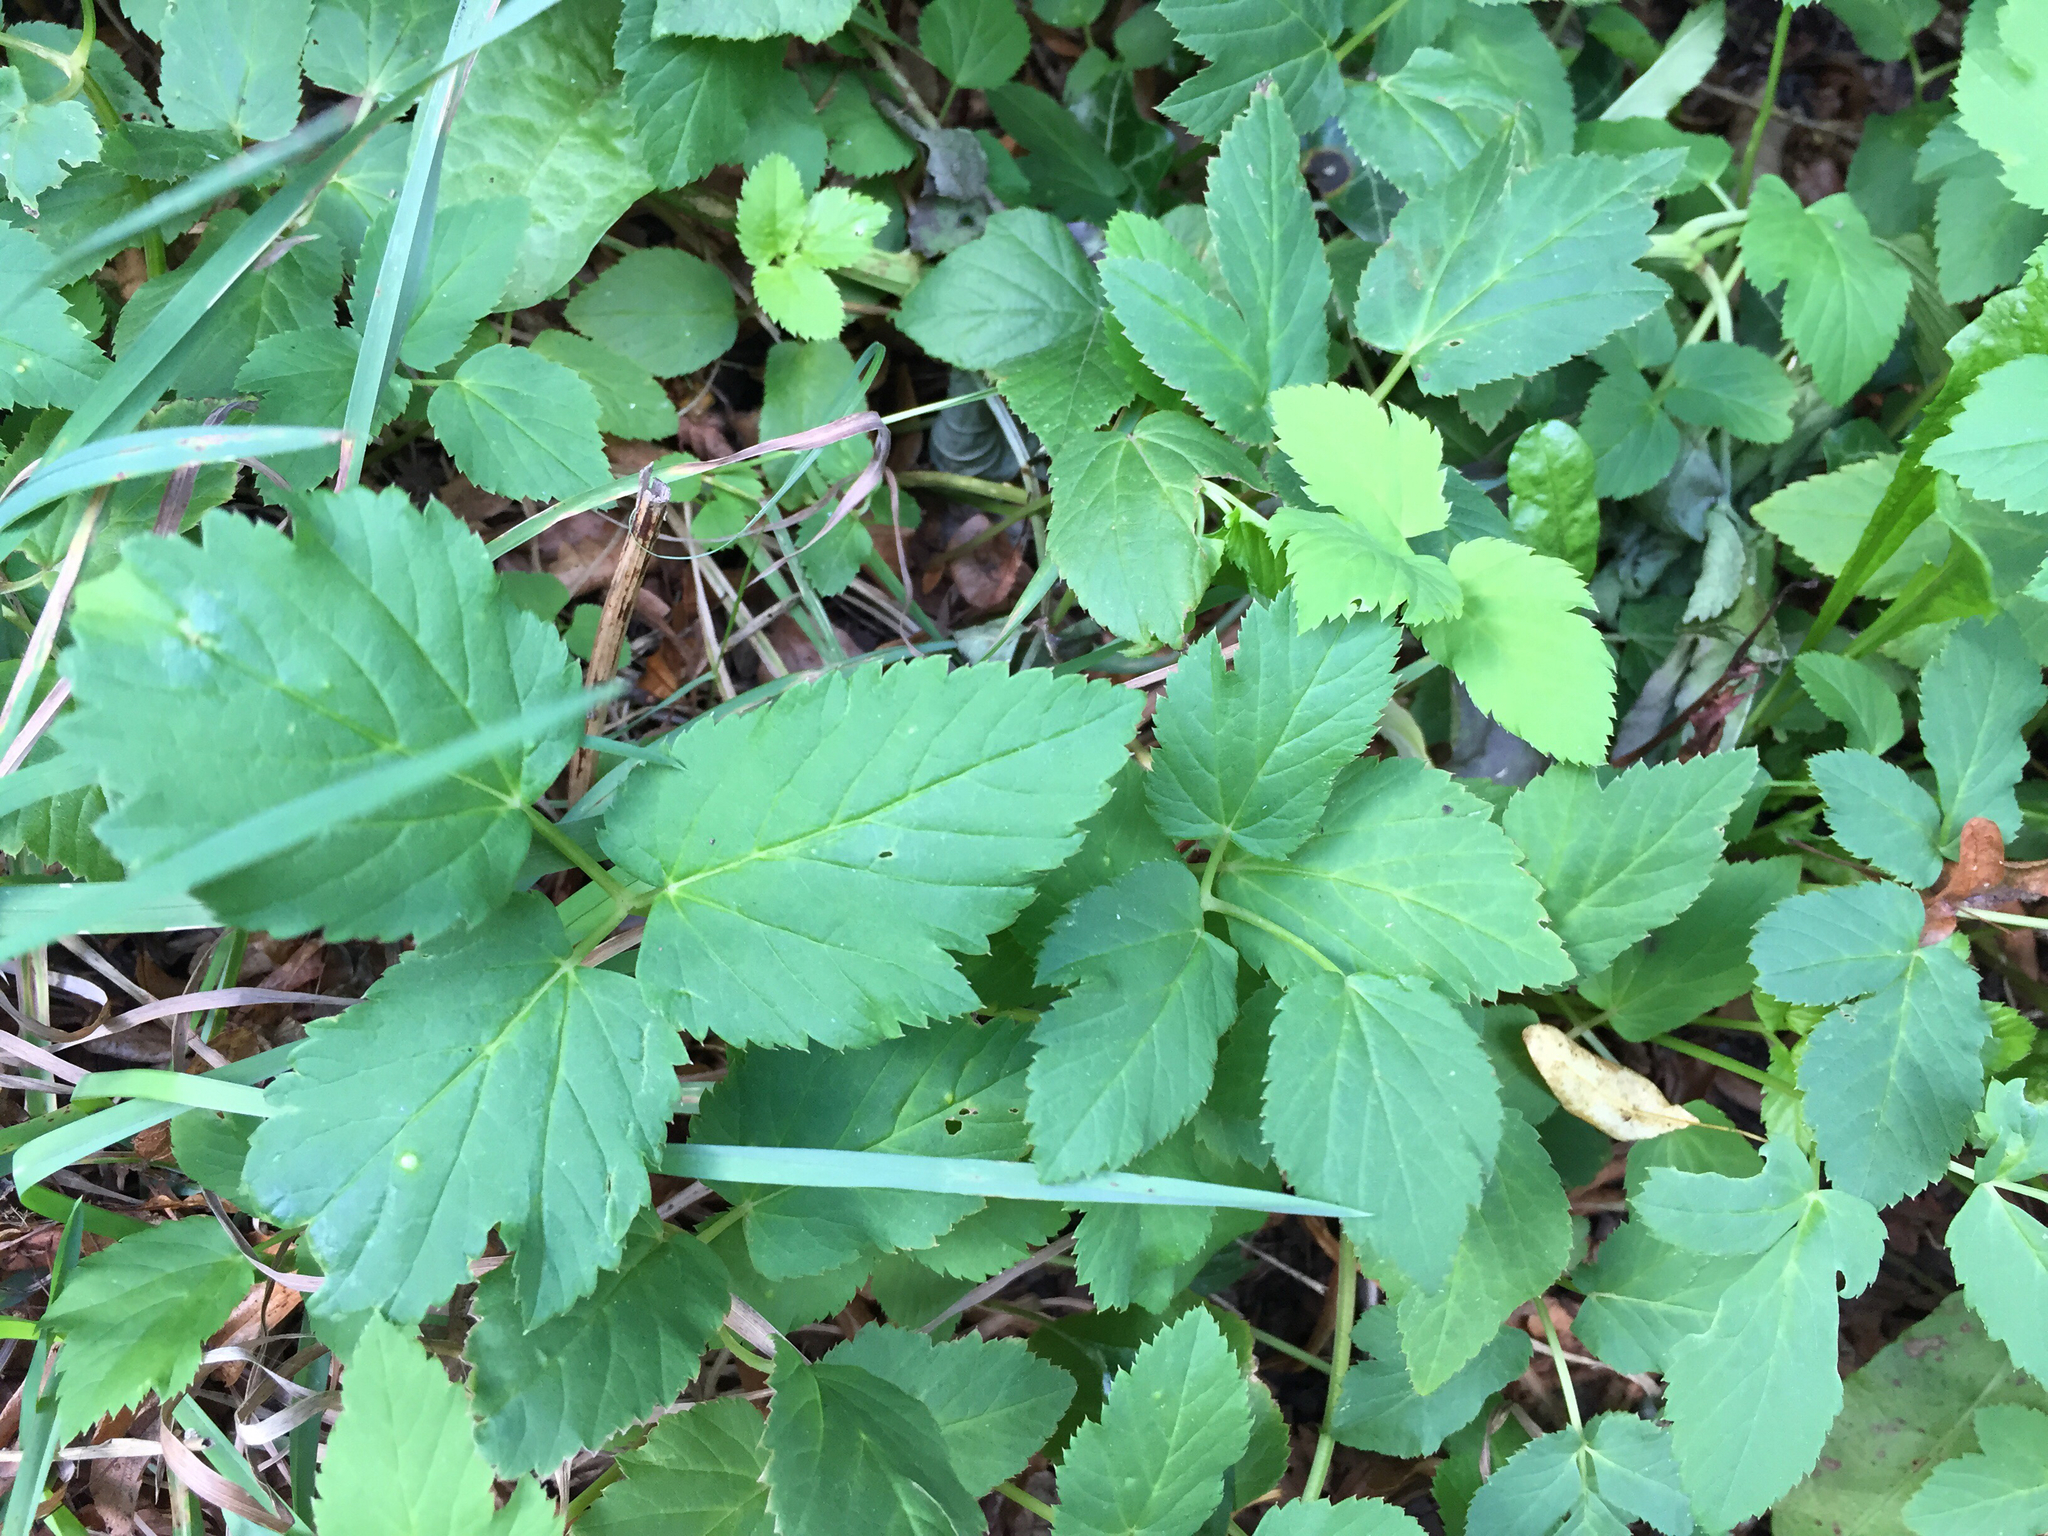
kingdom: Plantae
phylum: Tracheophyta
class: Magnoliopsida
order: Apiales
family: Apiaceae
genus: Aegopodium
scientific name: Aegopodium podagraria
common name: Ground-elder
